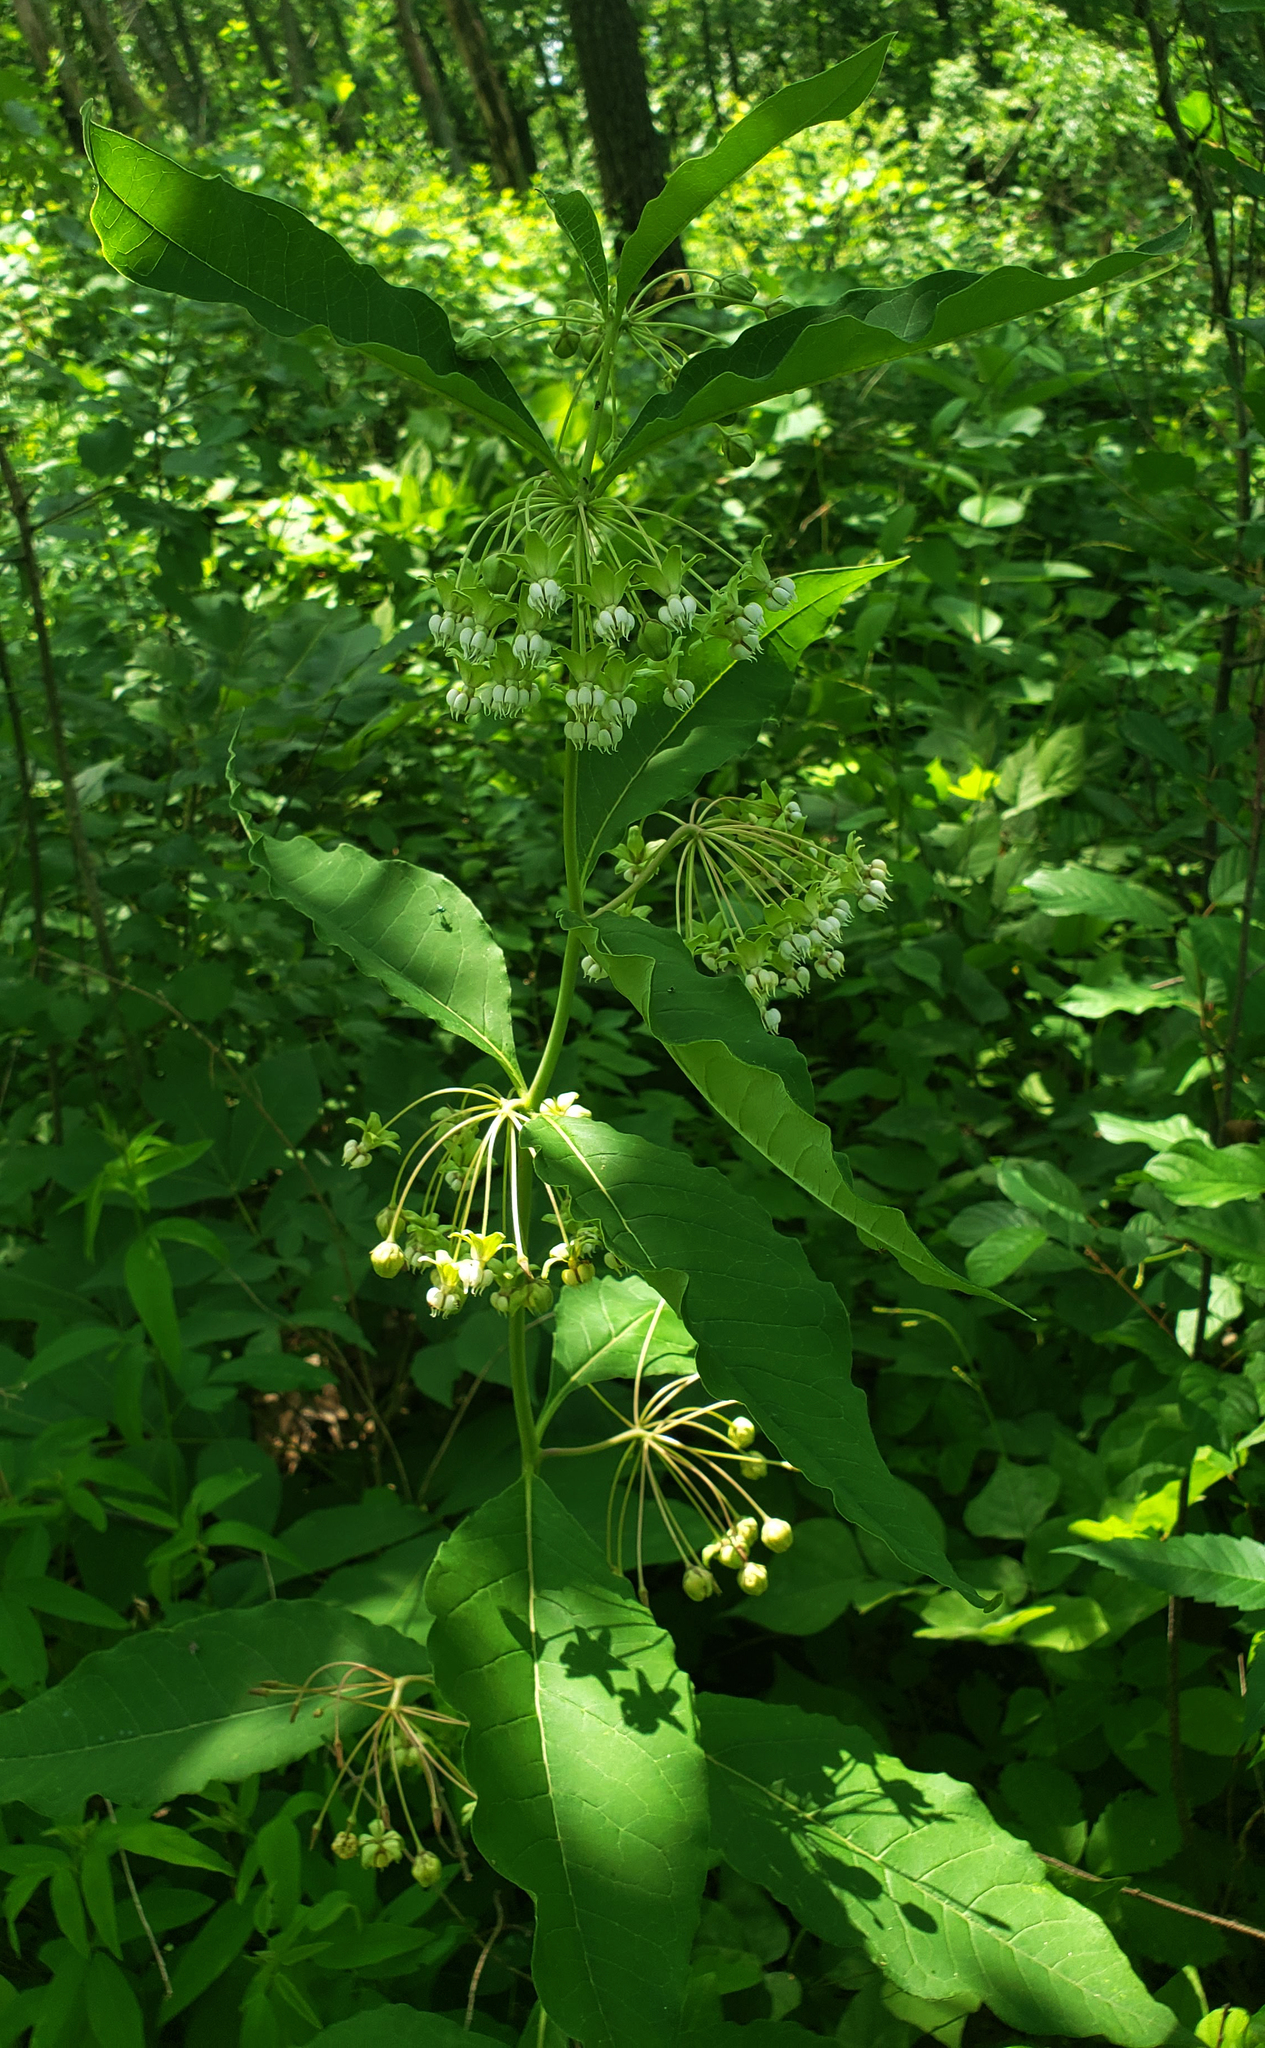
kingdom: Plantae
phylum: Tracheophyta
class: Magnoliopsida
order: Gentianales
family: Apocynaceae
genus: Asclepias
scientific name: Asclepias exaltata
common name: Poke milkweed
